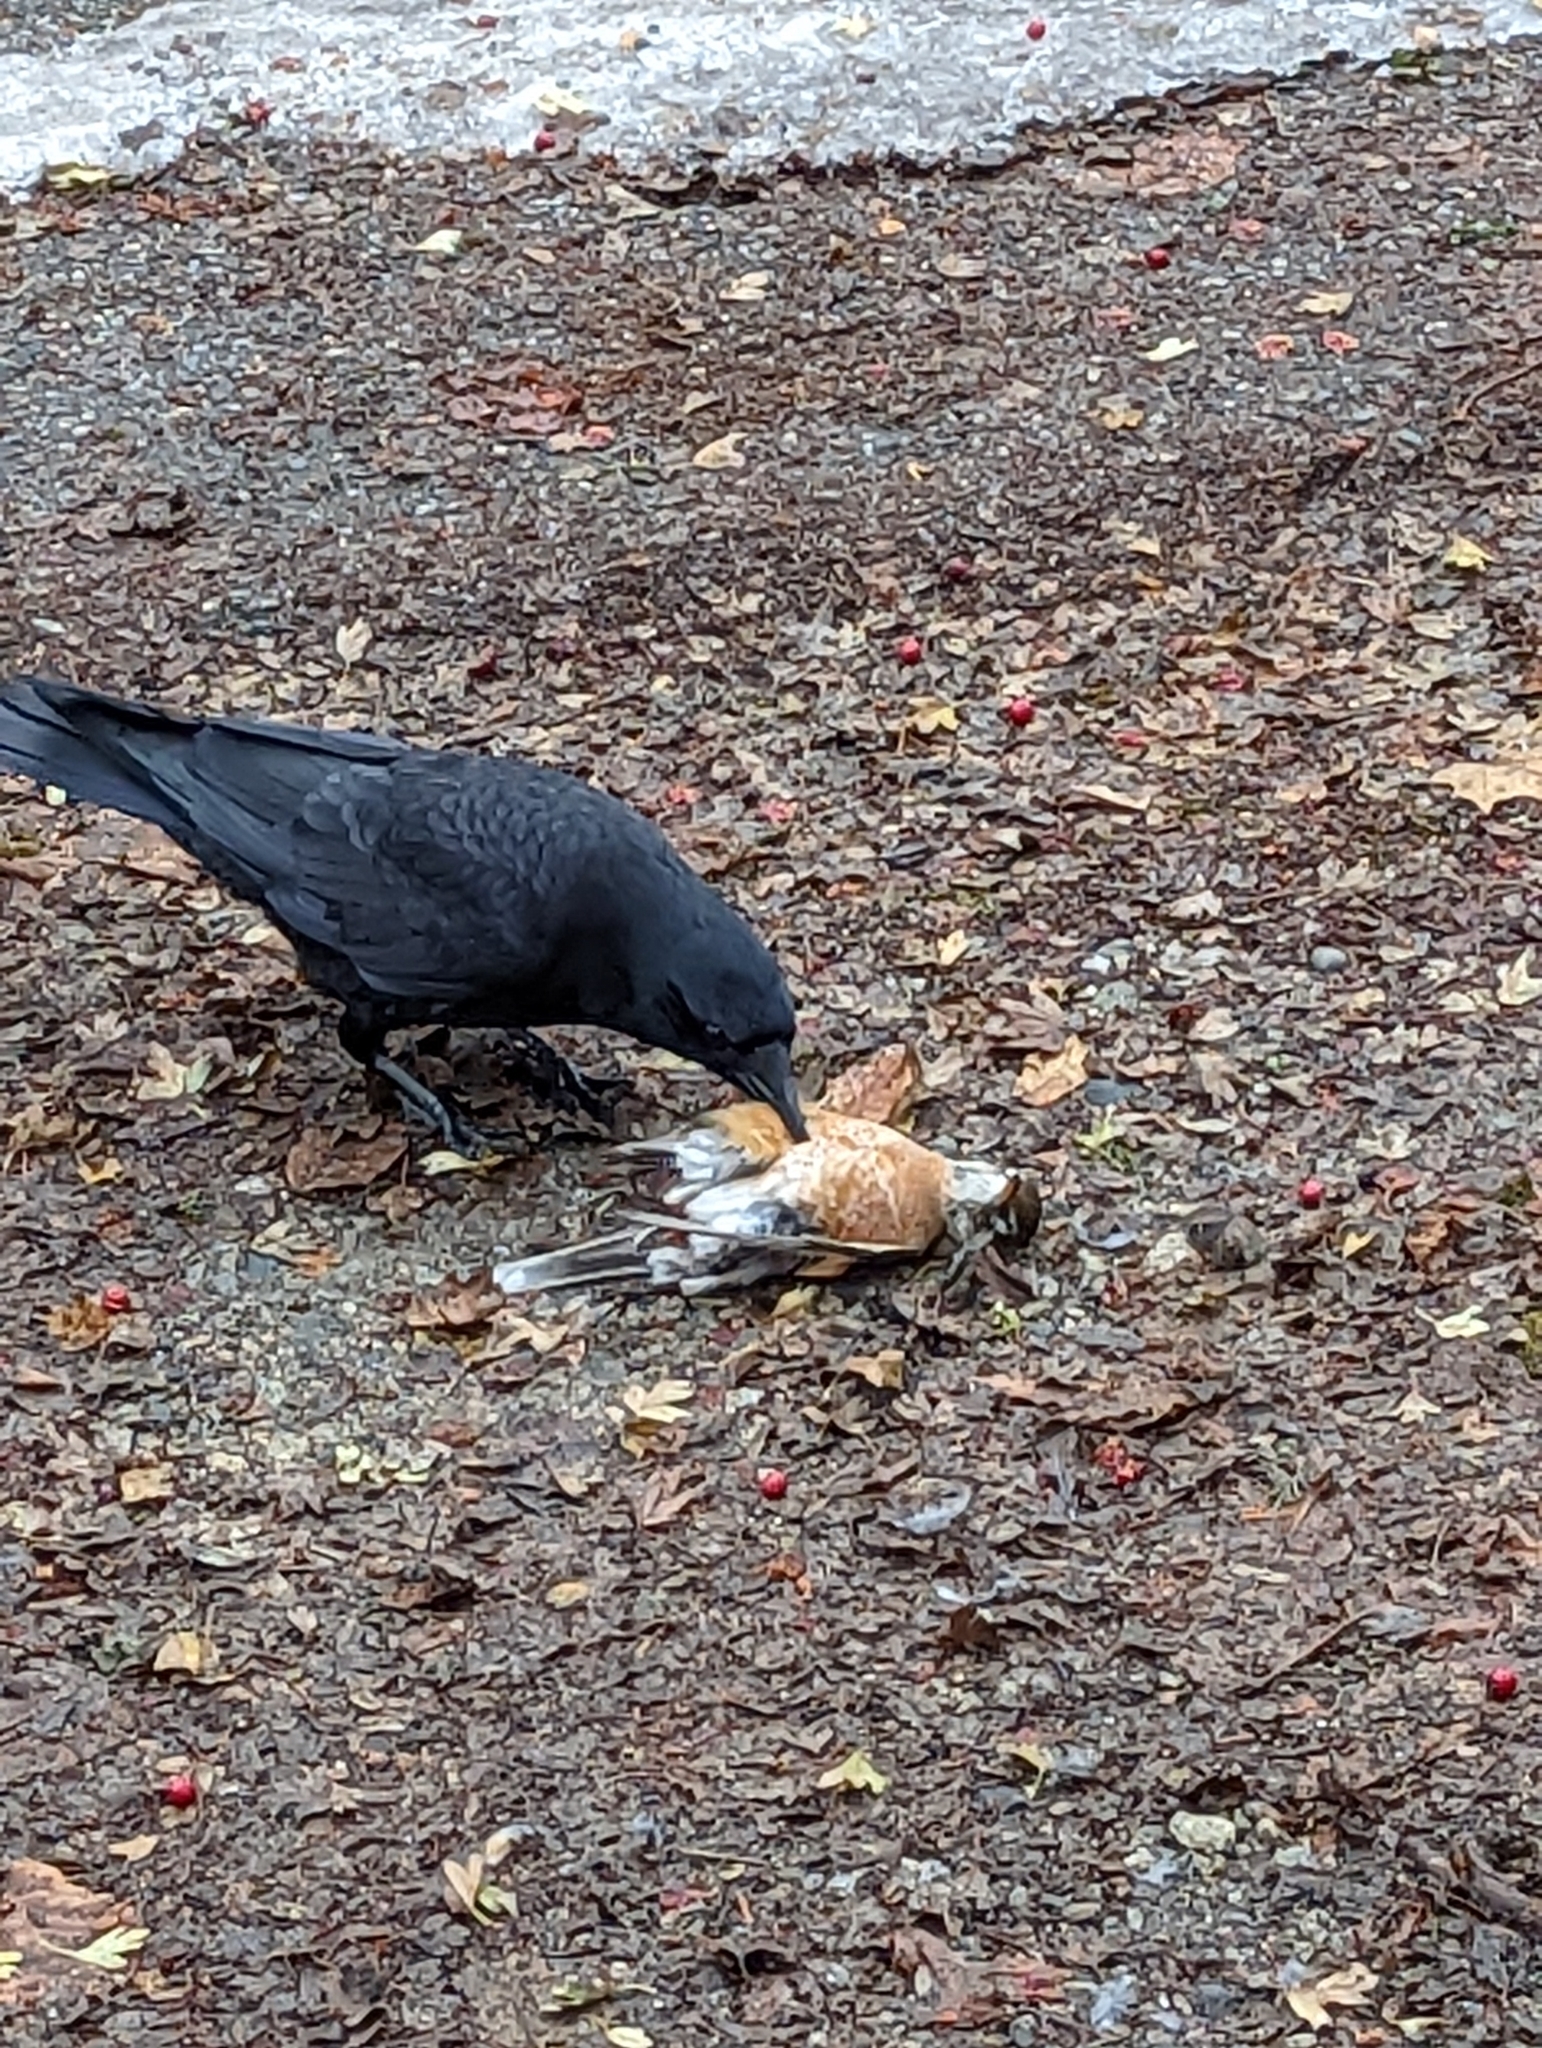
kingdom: Animalia
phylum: Chordata
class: Aves
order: Passeriformes
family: Corvidae
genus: Corvus
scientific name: Corvus brachyrhynchos
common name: American crow
